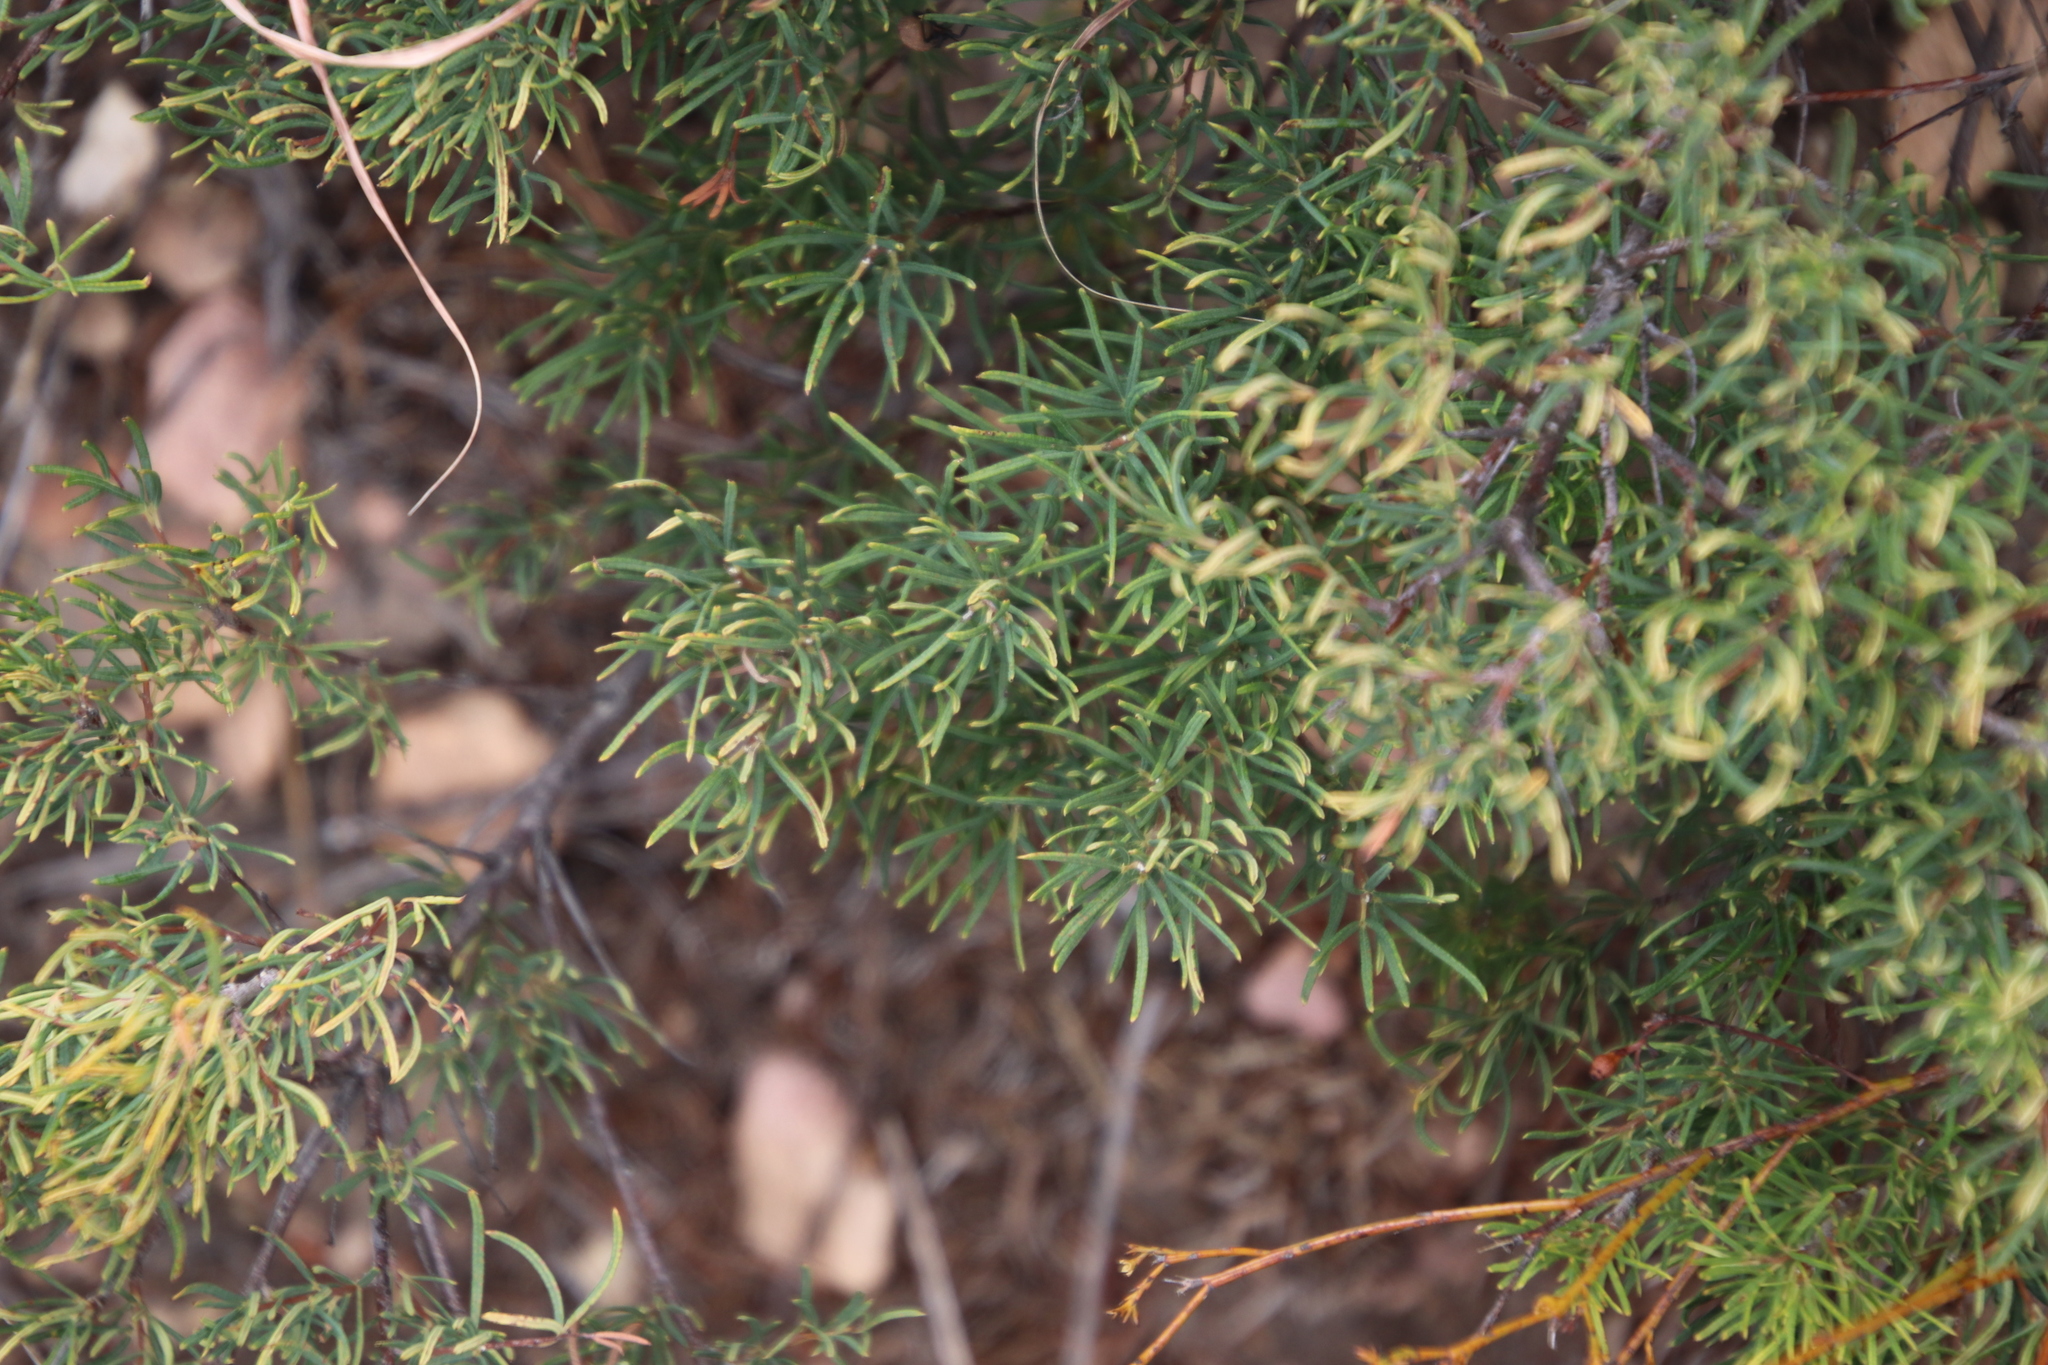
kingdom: Plantae
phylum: Tracheophyta
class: Magnoliopsida
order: Sapindales
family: Anacardiaceae
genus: Searsia
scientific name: Searsia rosmarinifolia
